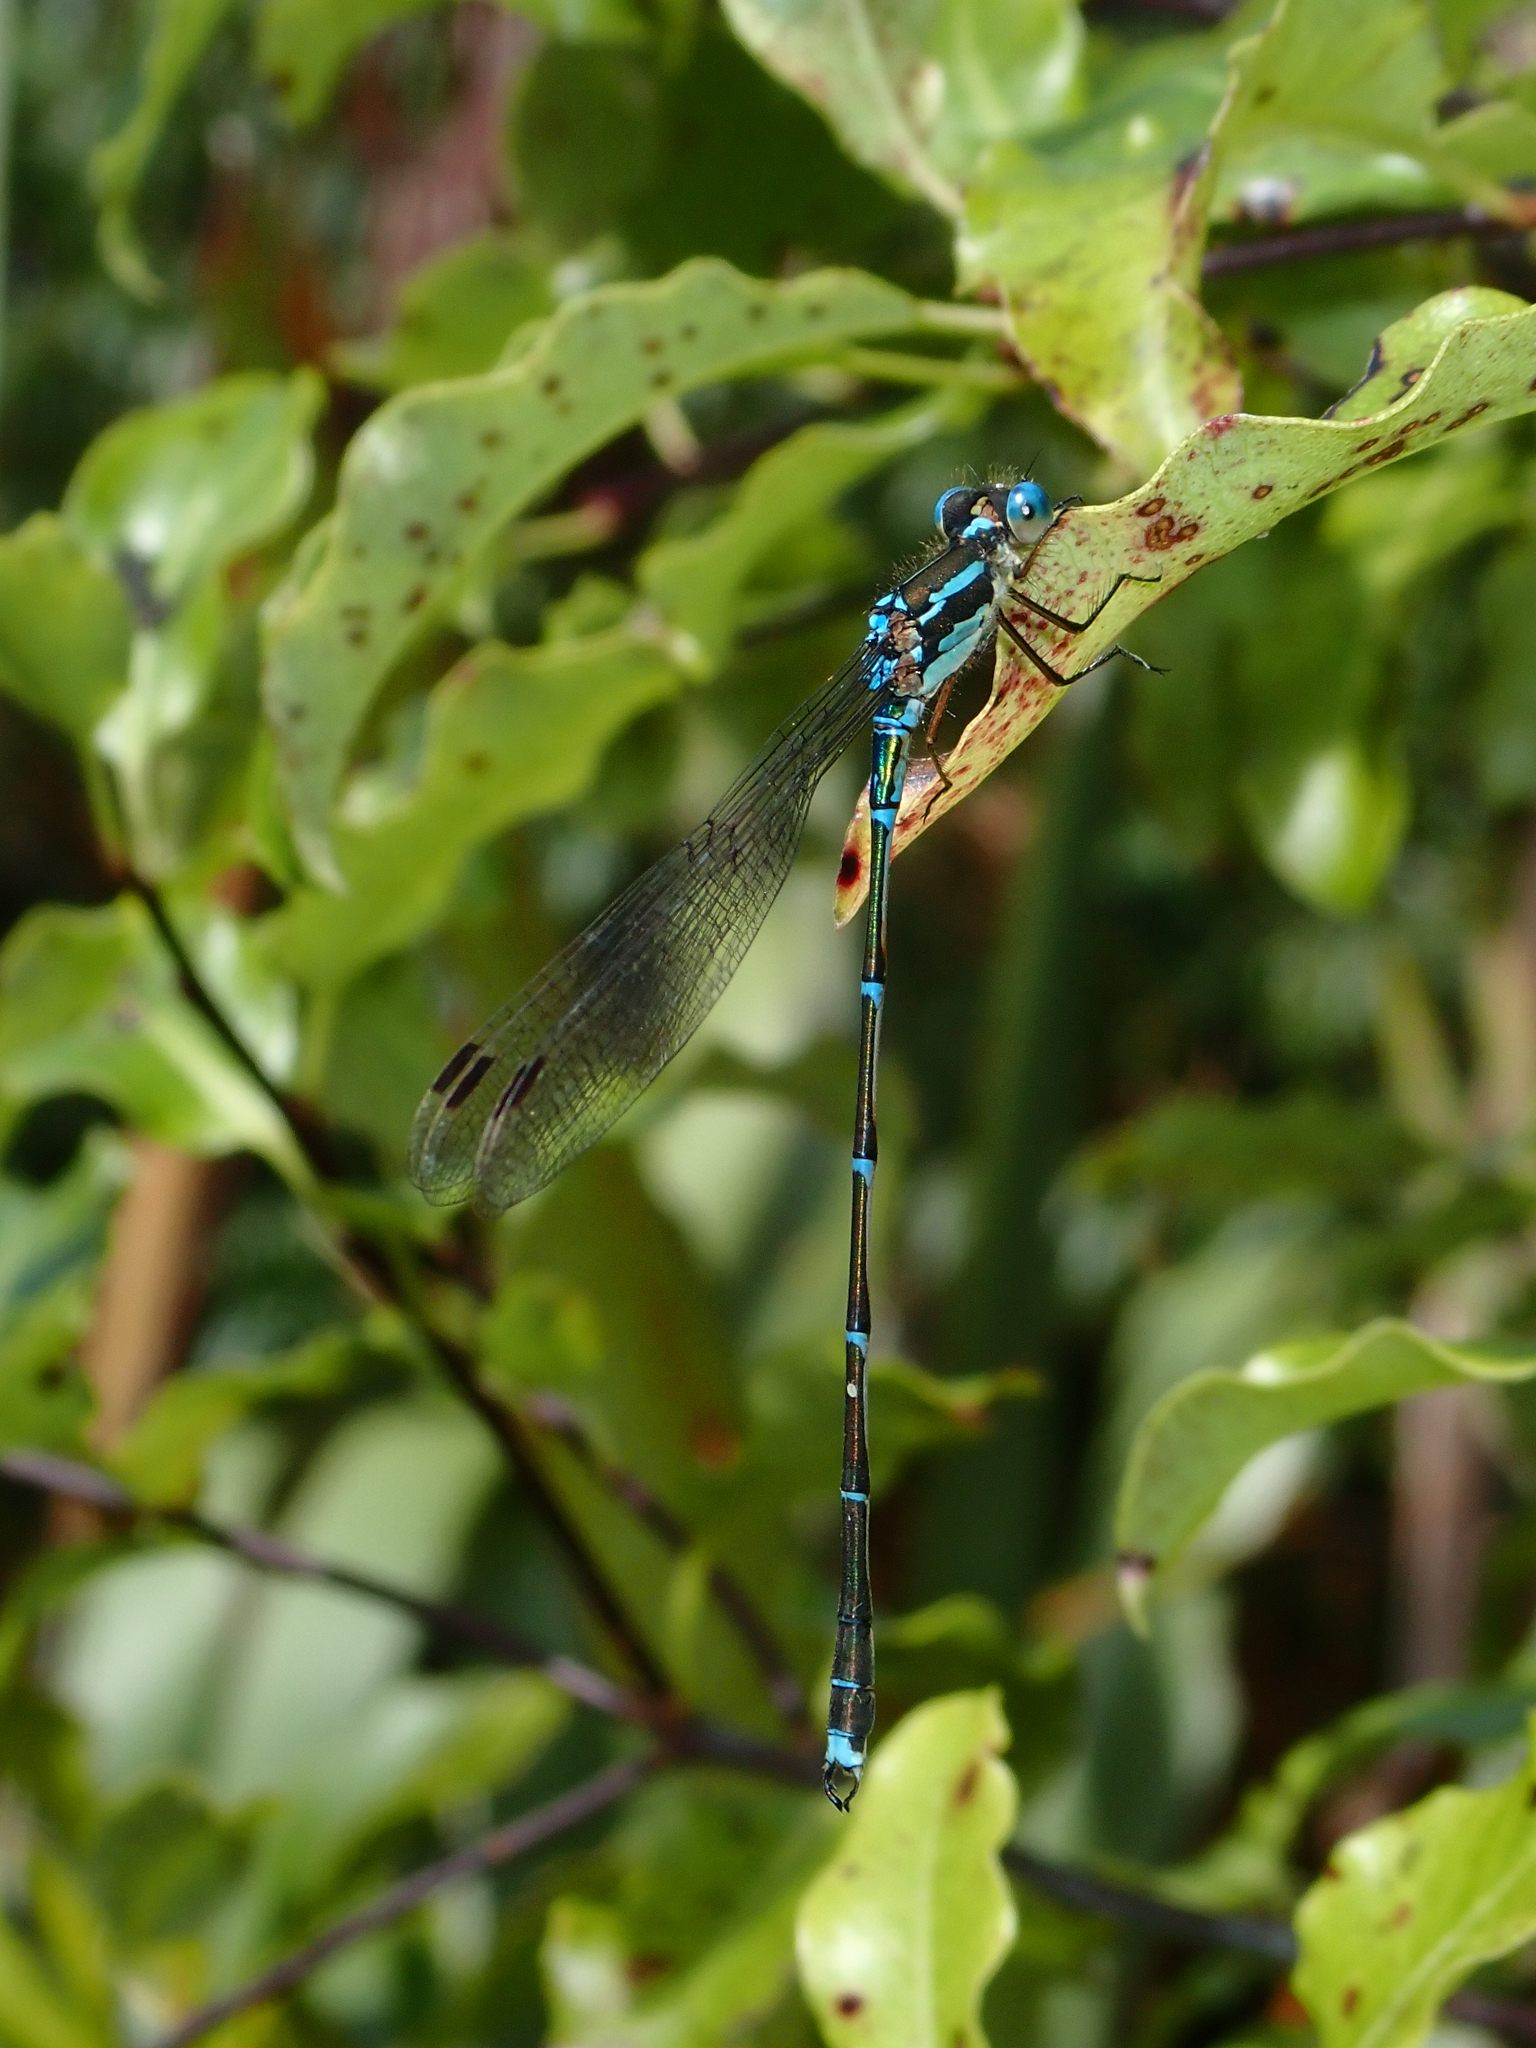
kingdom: Animalia
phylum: Arthropoda
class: Insecta
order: Odonata
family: Lestidae
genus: Austrolestes
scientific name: Austrolestes colensonis
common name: Blue damselfly
